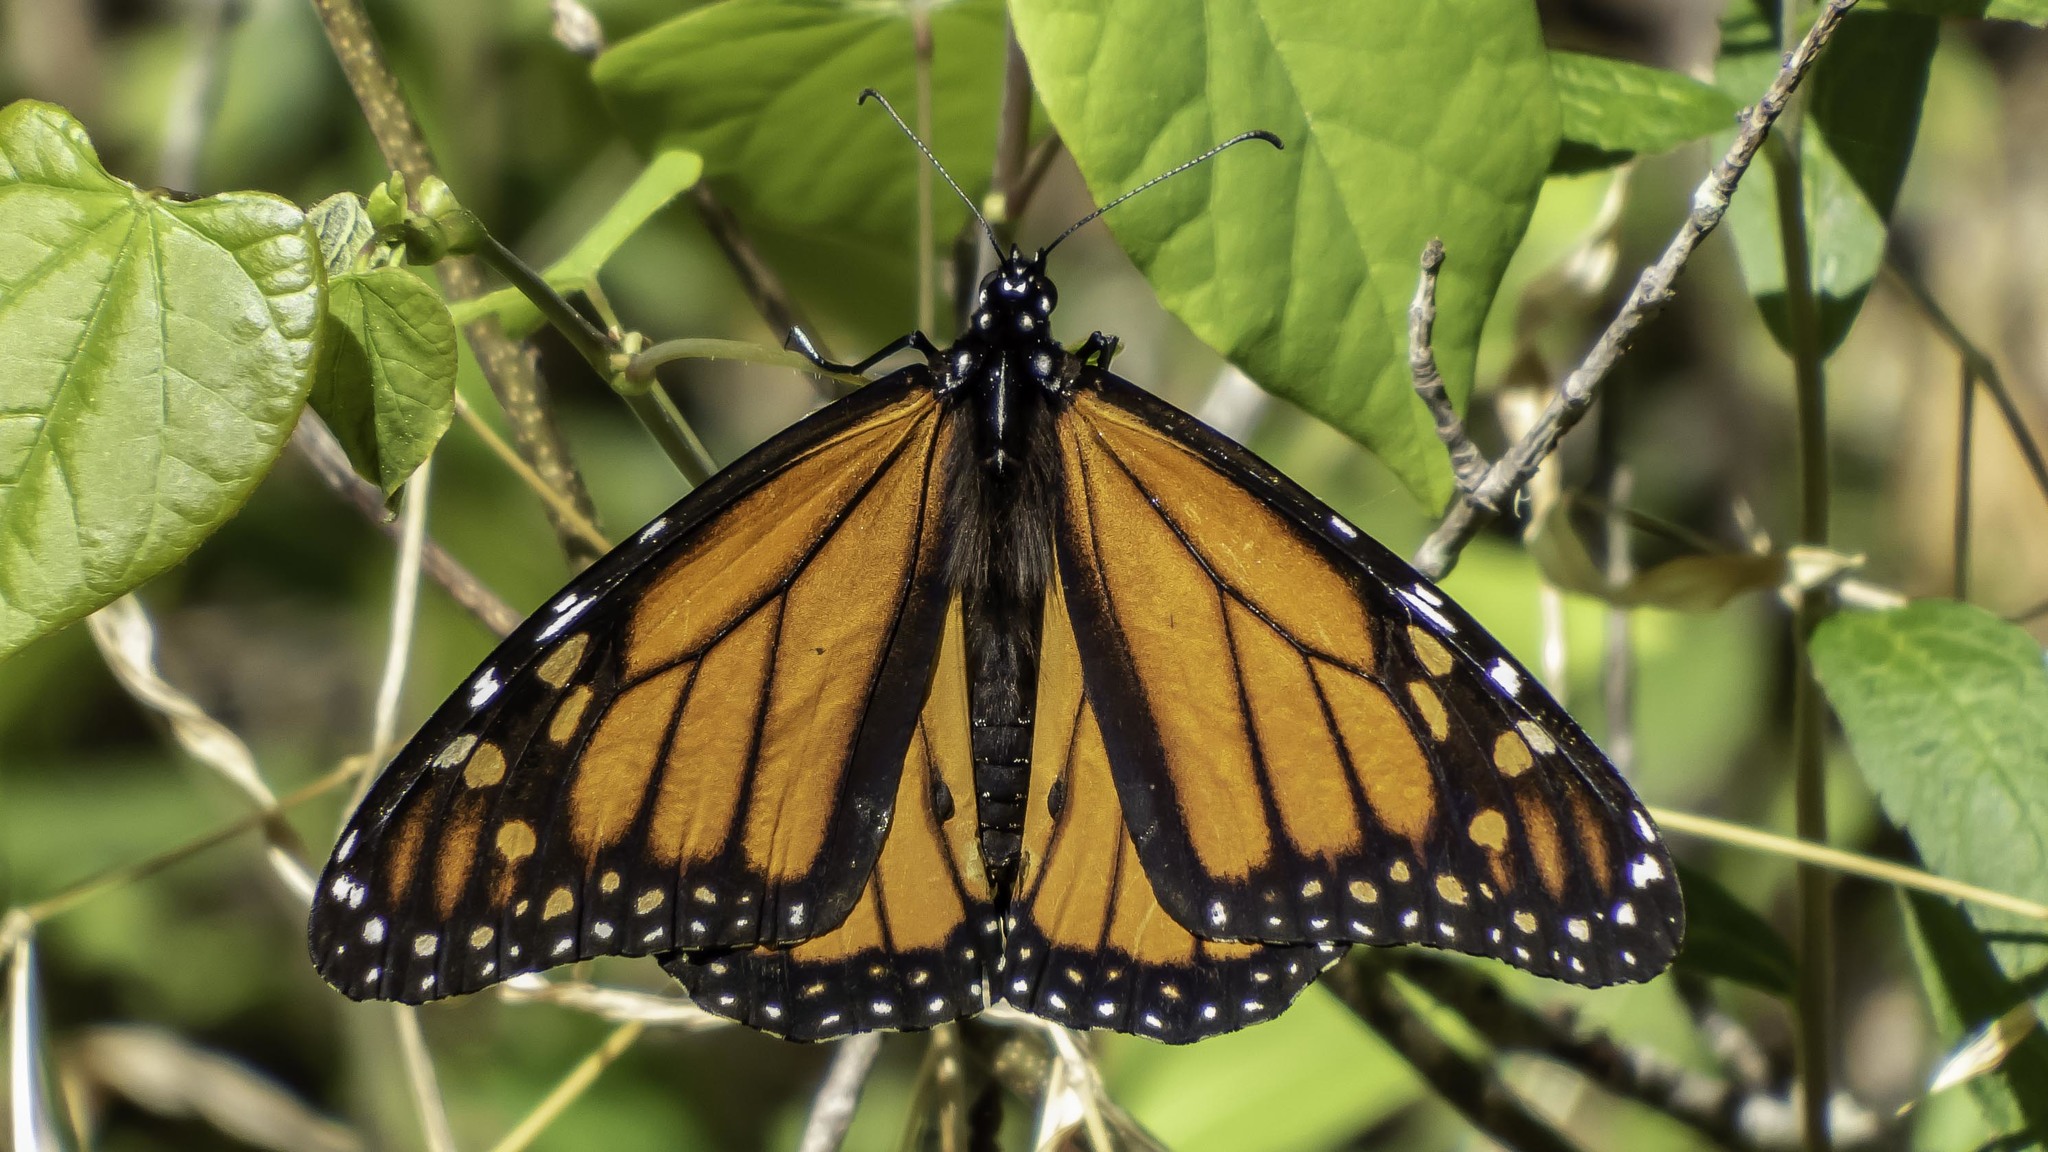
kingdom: Animalia
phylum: Arthropoda
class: Insecta
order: Lepidoptera
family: Nymphalidae
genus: Danaus
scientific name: Danaus plexippus
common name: Monarch
